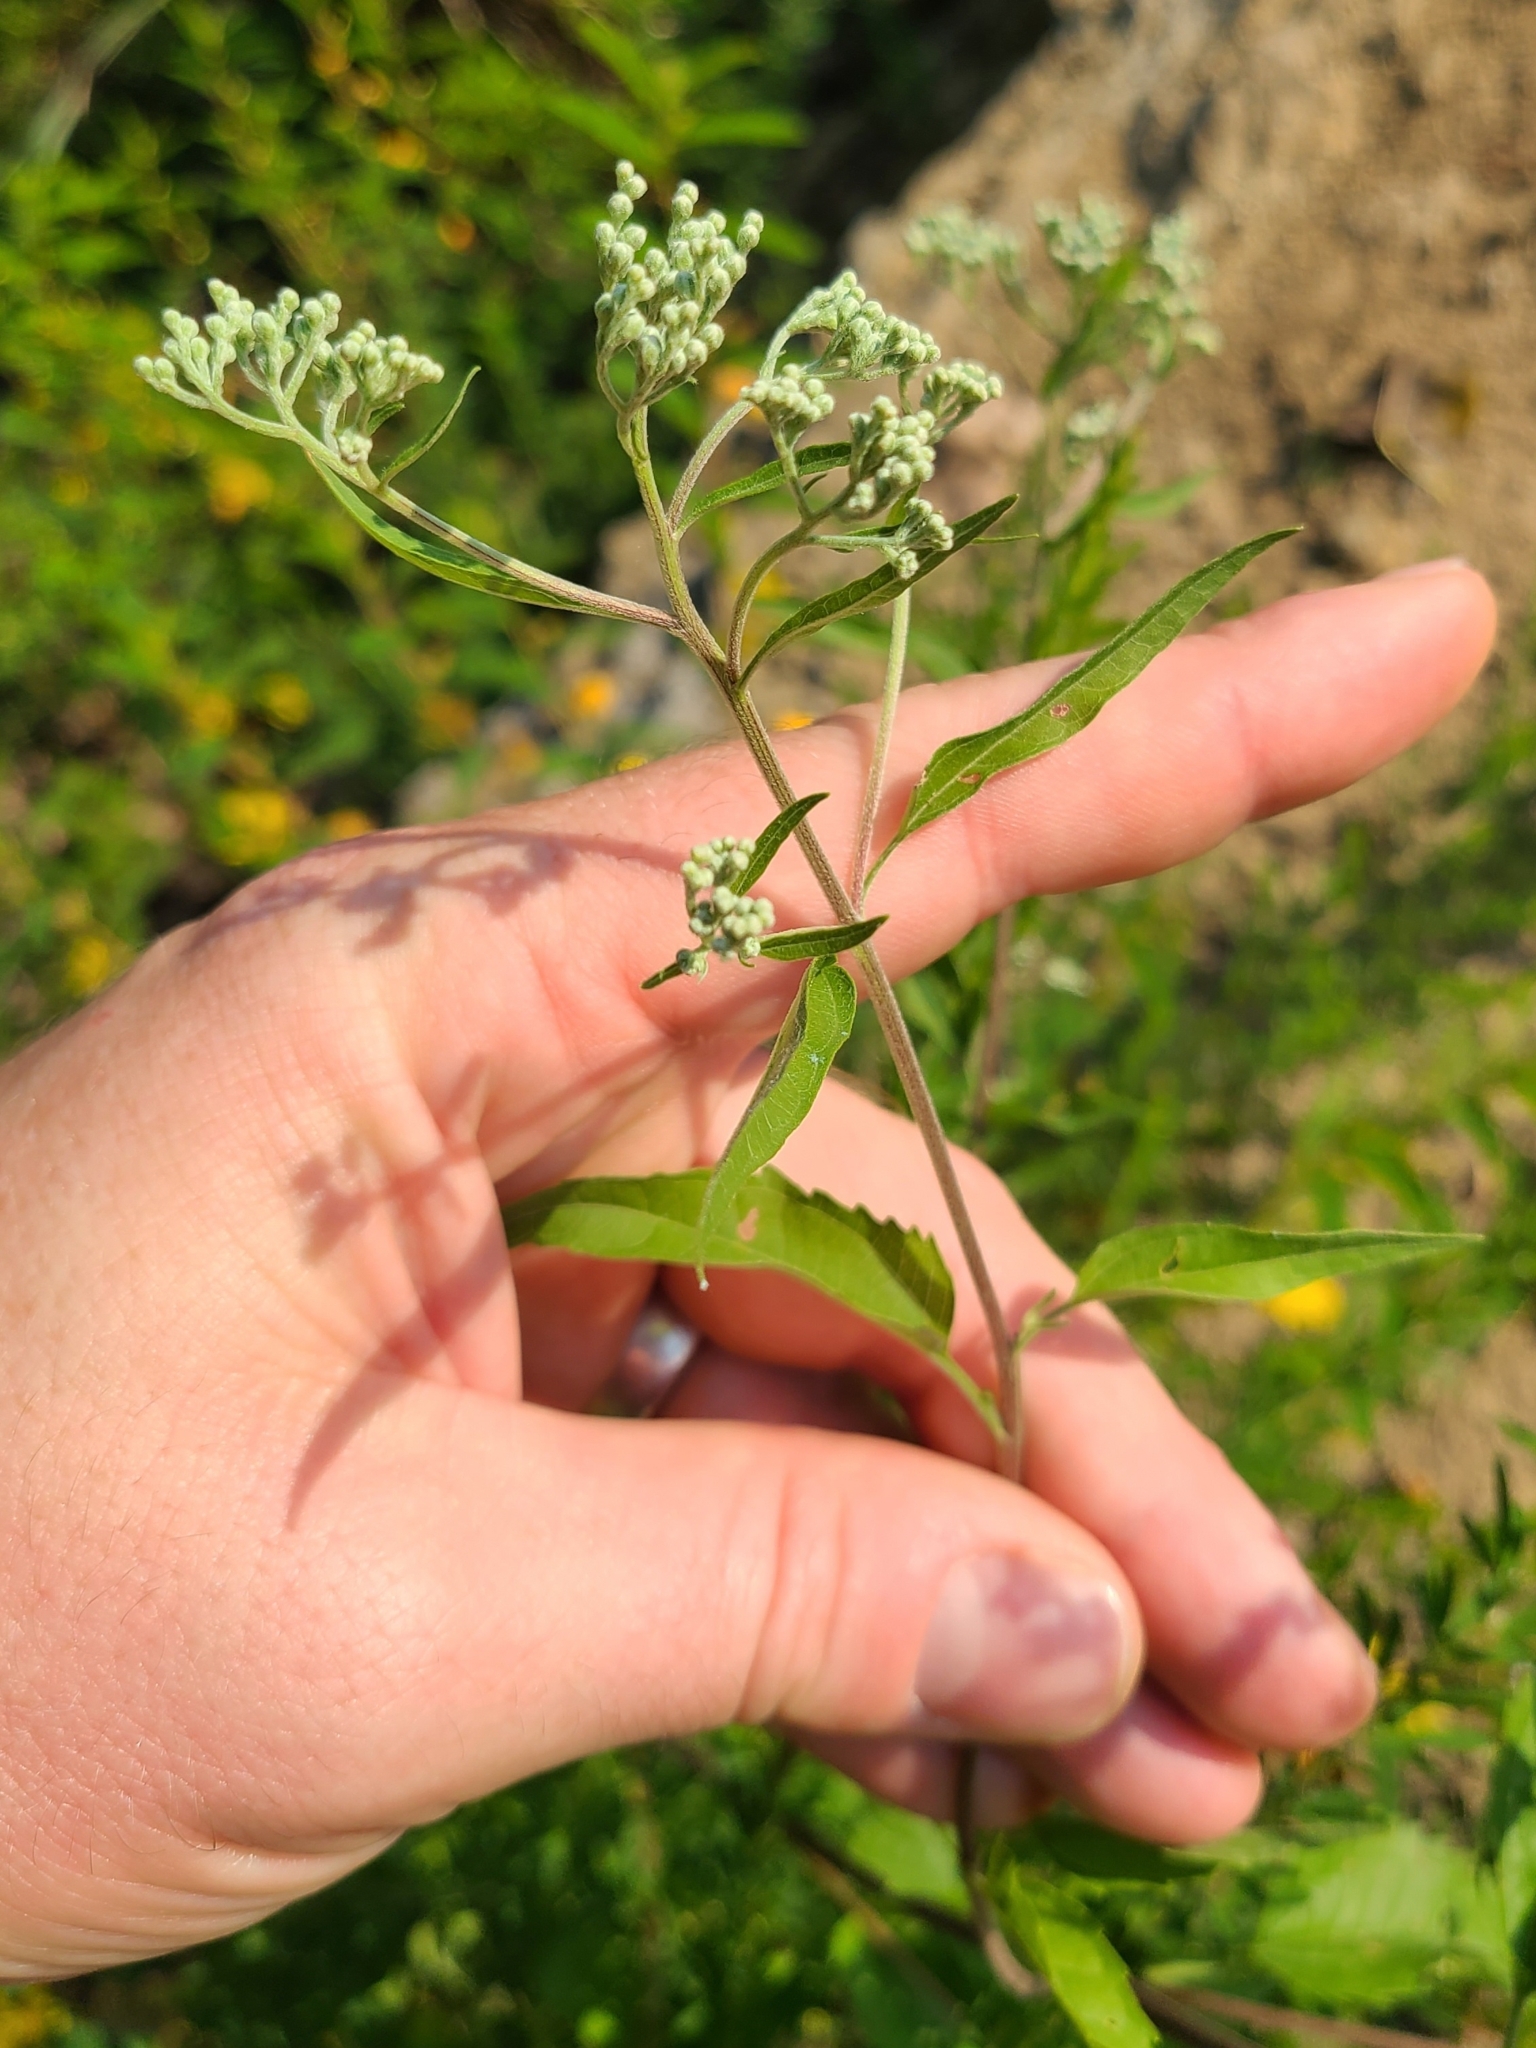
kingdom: Plantae
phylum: Tracheophyta
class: Magnoliopsida
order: Asterales
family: Asteraceae
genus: Eupatorium
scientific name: Eupatorium serotinum
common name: Late boneset
